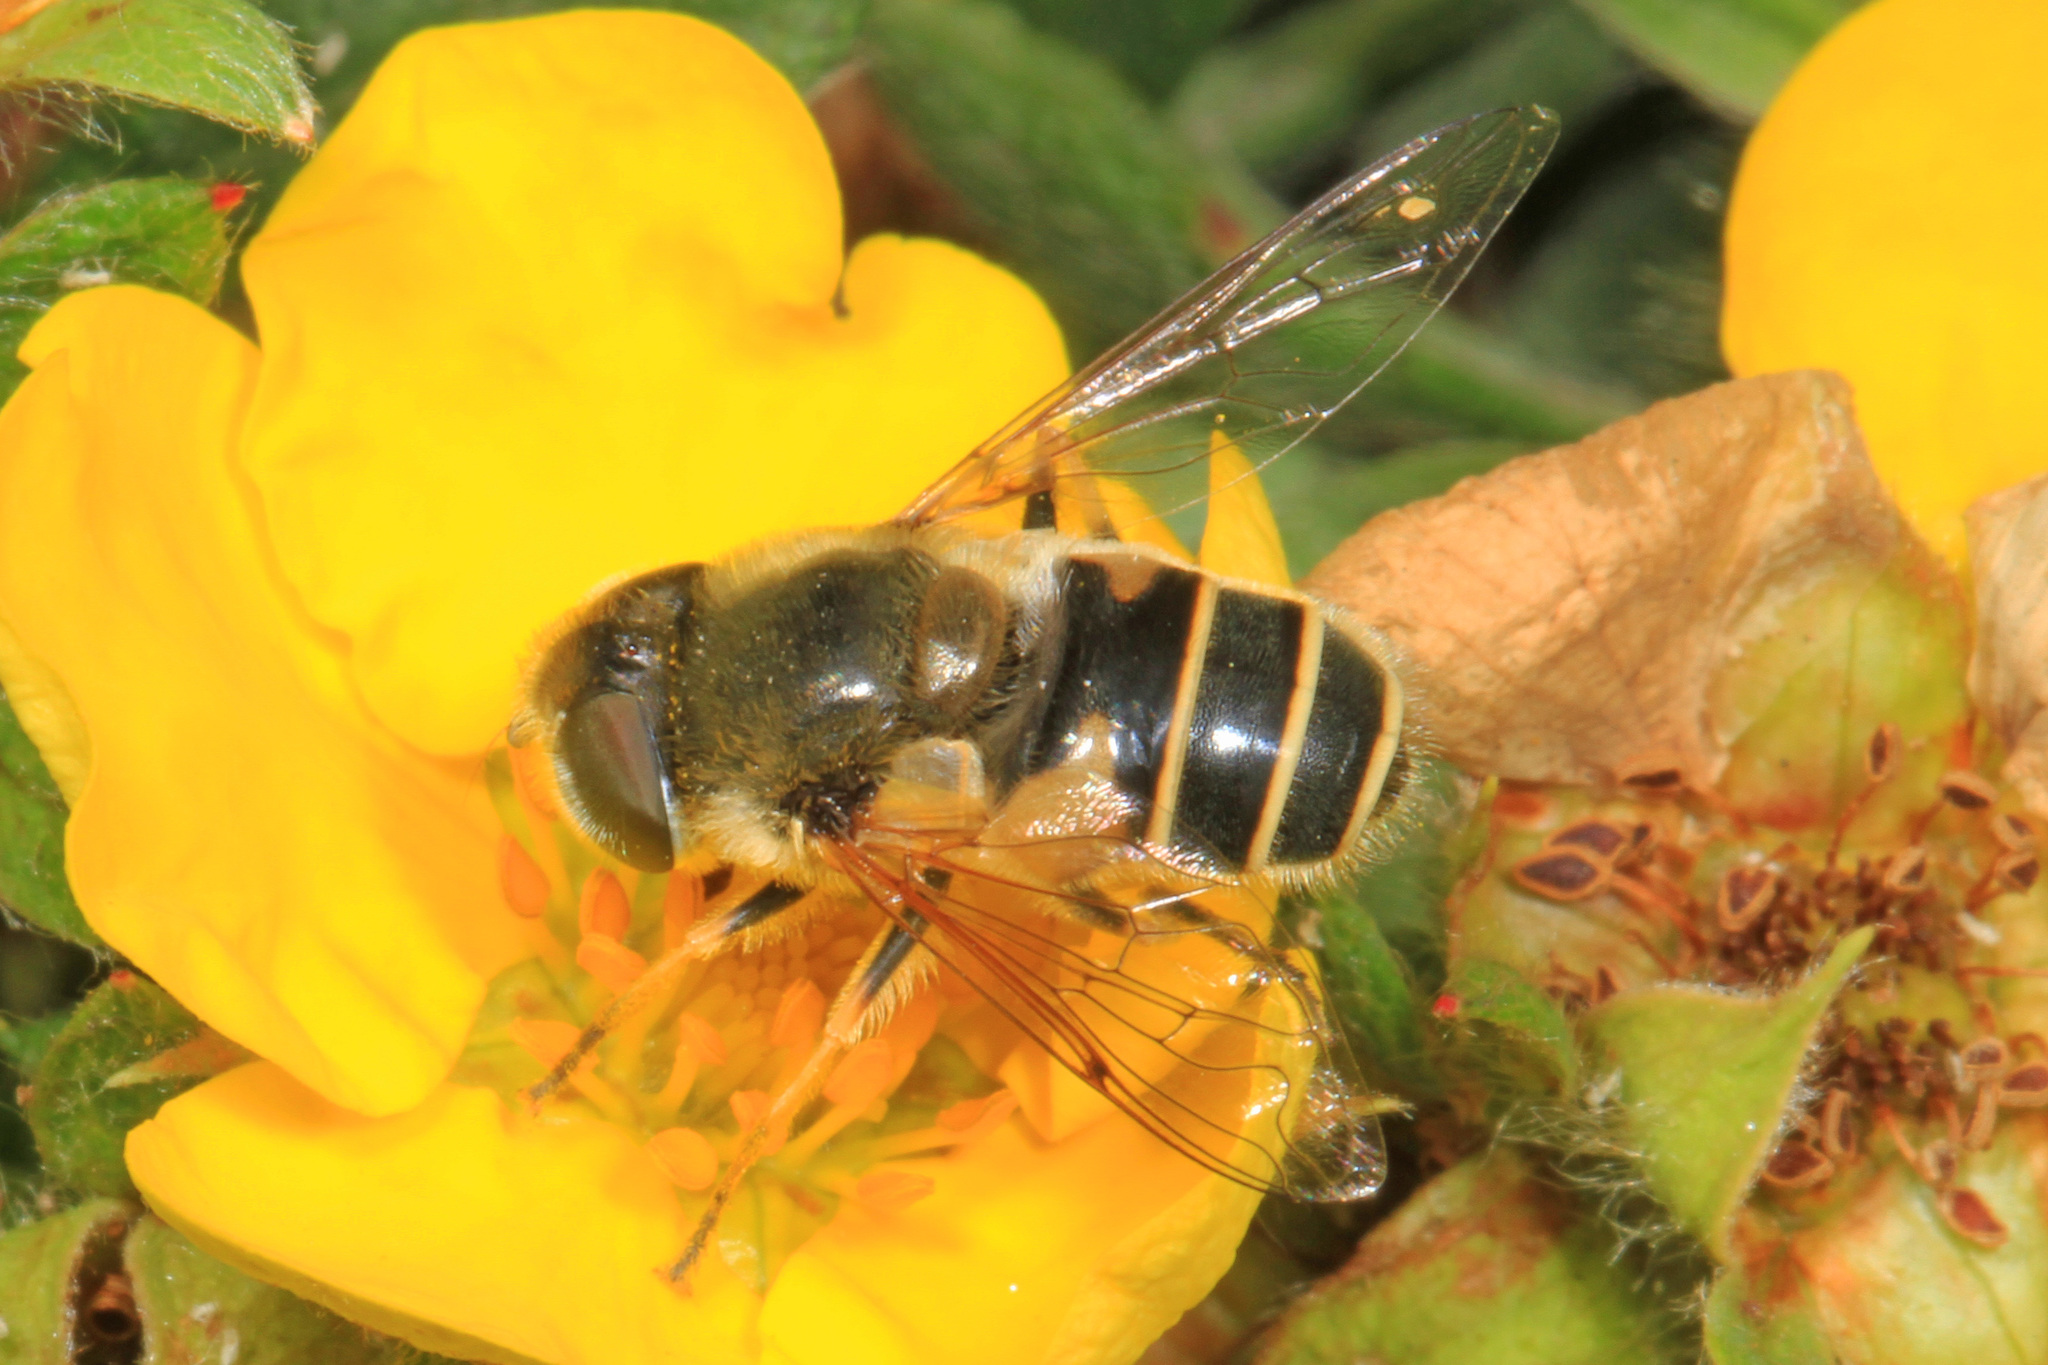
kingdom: Animalia
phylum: Arthropoda
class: Insecta
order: Diptera
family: Syrphidae
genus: Eristalis
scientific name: Eristalis nemorum
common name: Orange-spined drone fly
